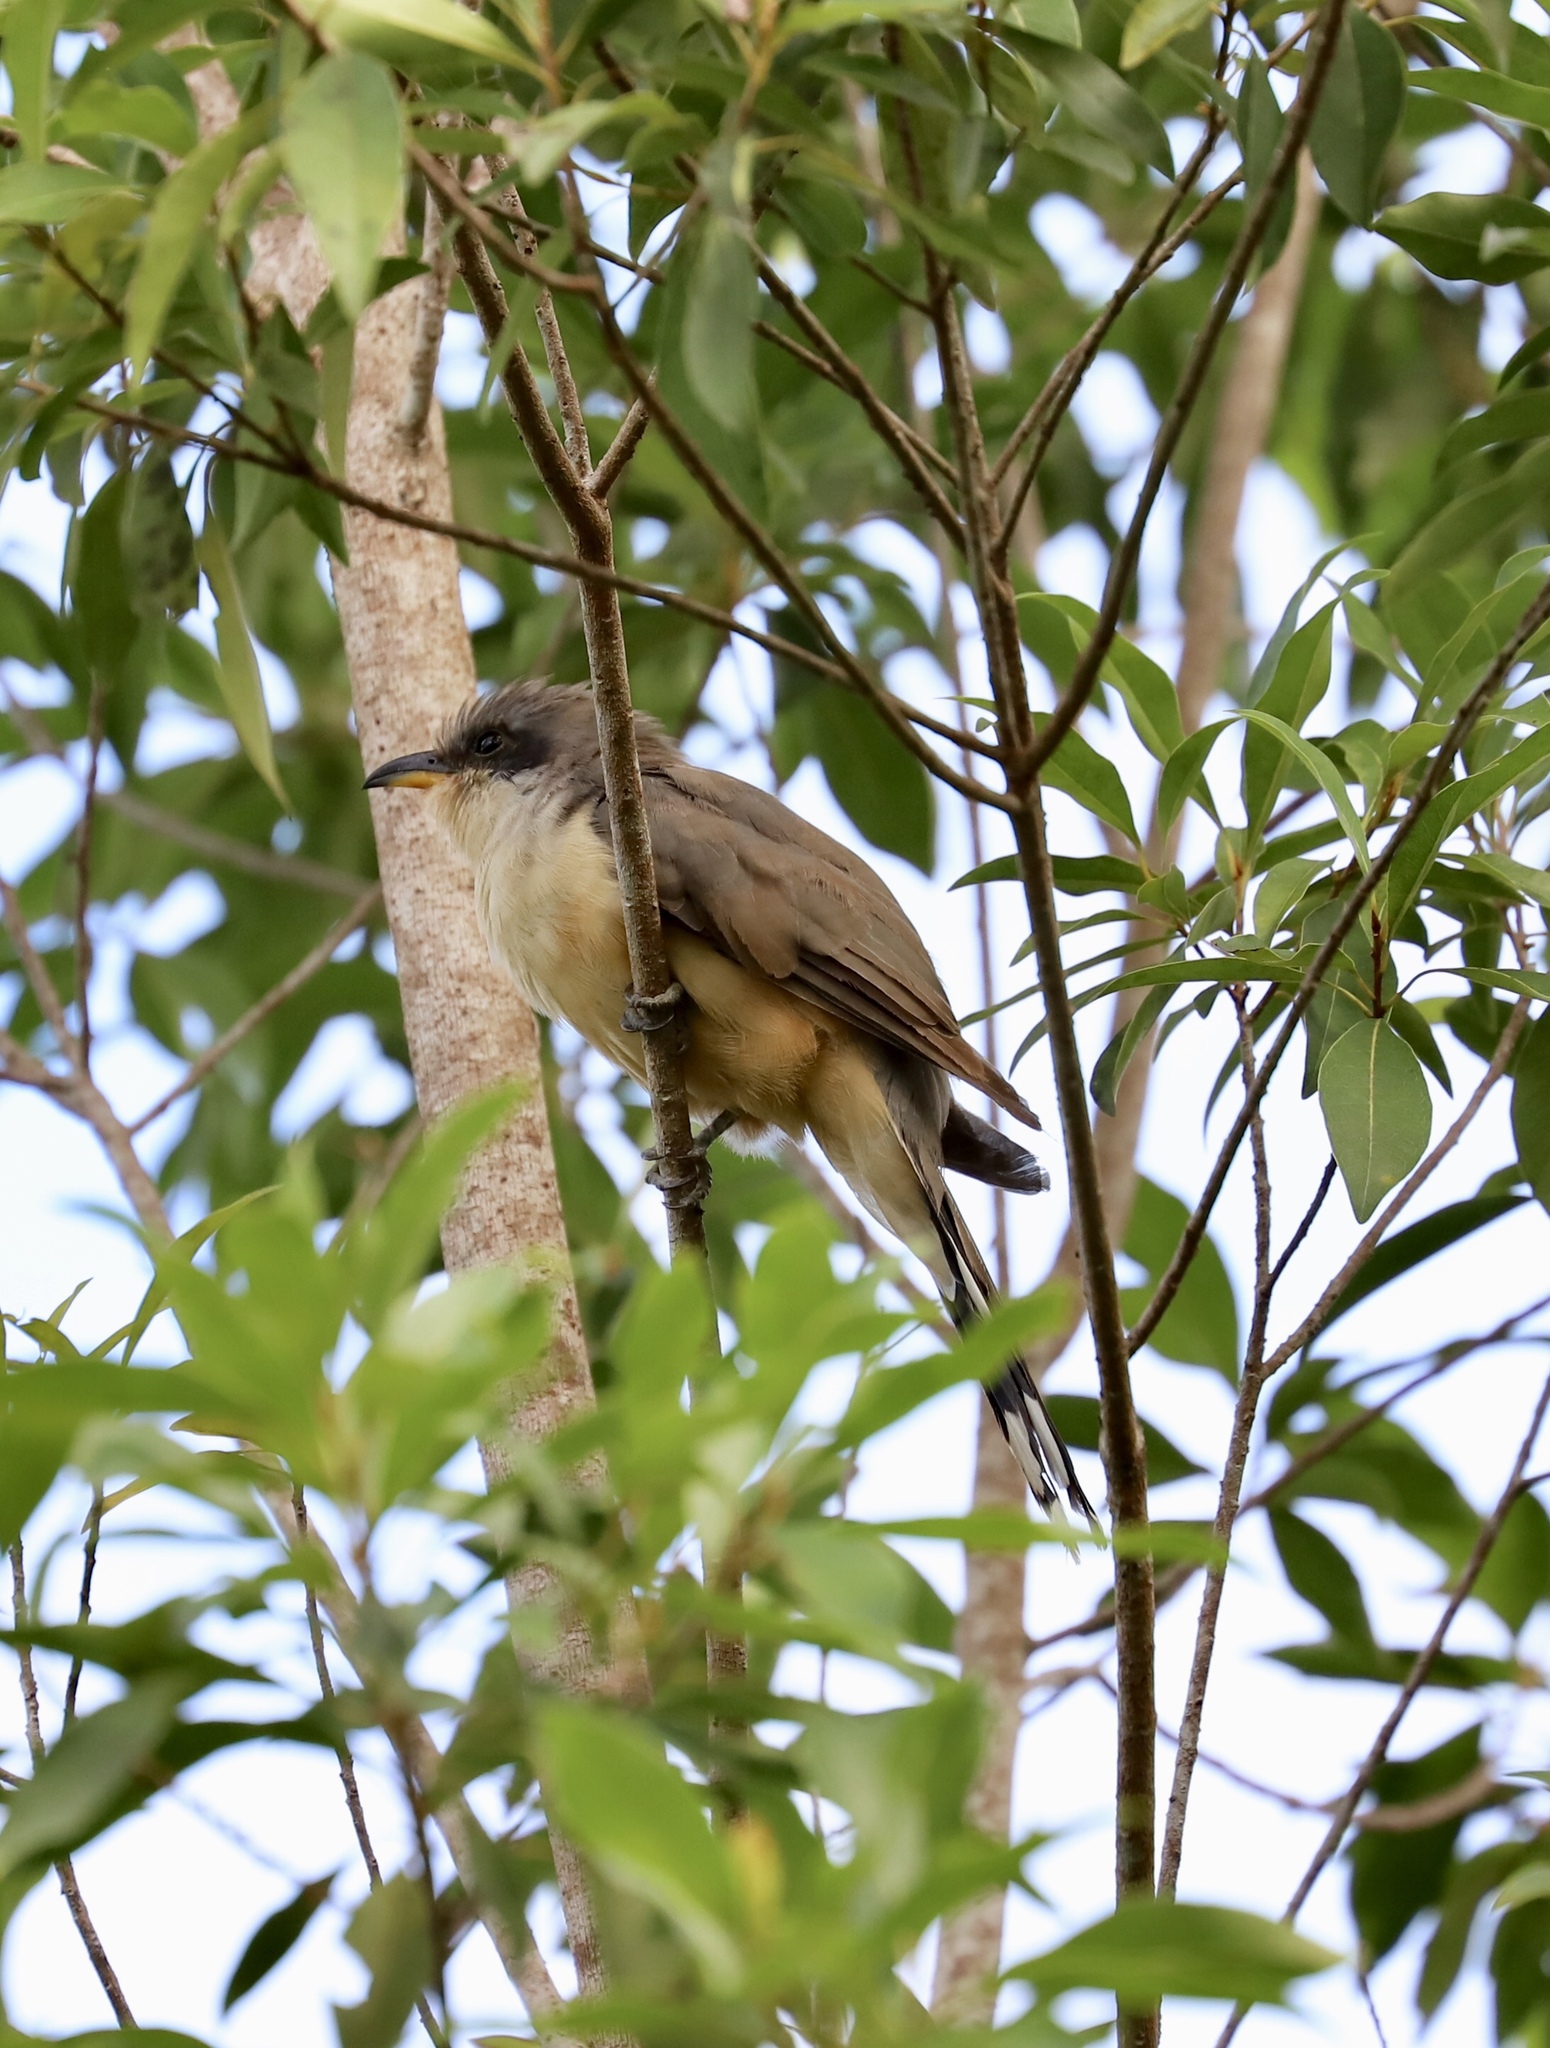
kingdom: Animalia
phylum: Chordata
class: Aves
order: Cuculiformes
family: Cuculidae
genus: Coccyzus
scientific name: Coccyzus minor
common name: Mangrove cuckoo
